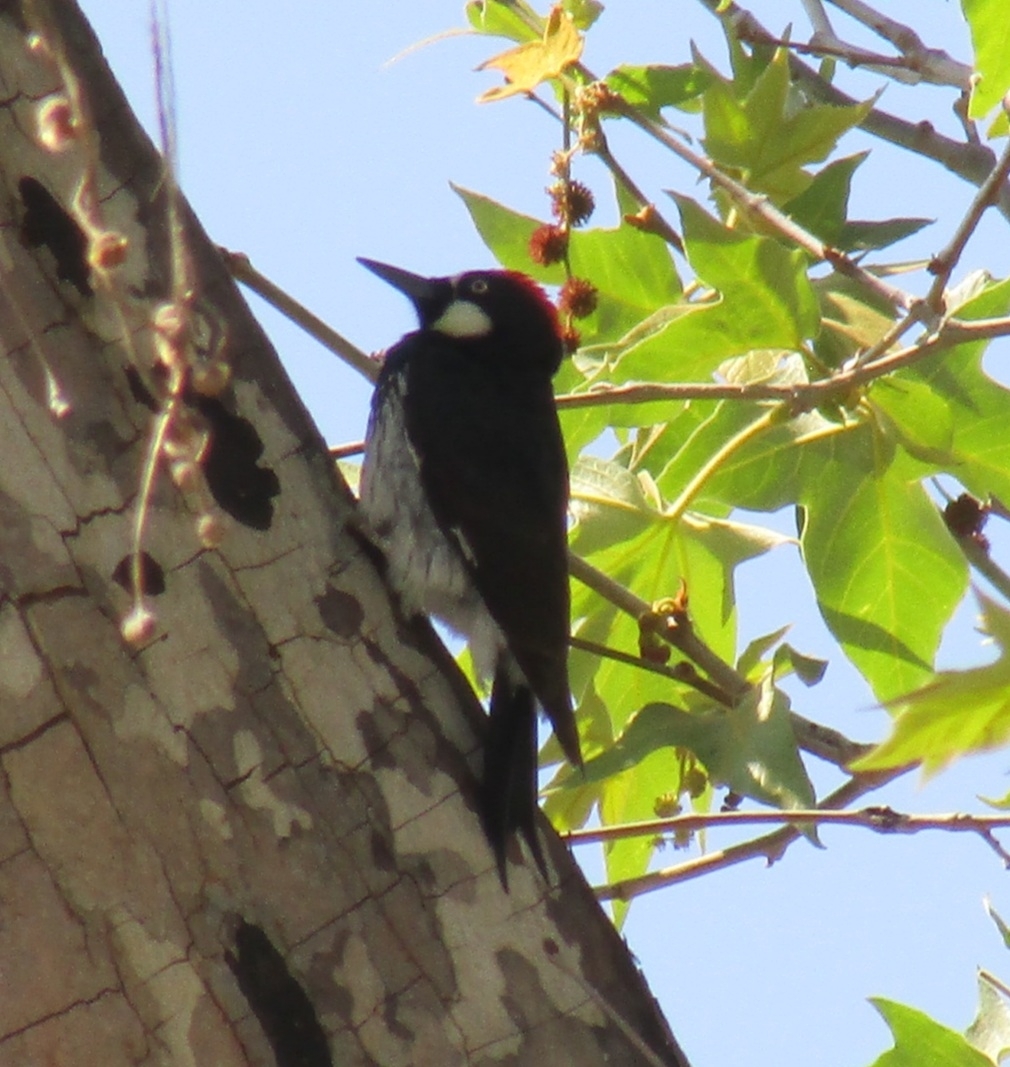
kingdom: Animalia
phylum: Chordata
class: Aves
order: Piciformes
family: Picidae
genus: Melanerpes
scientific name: Melanerpes formicivorus
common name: Acorn woodpecker
